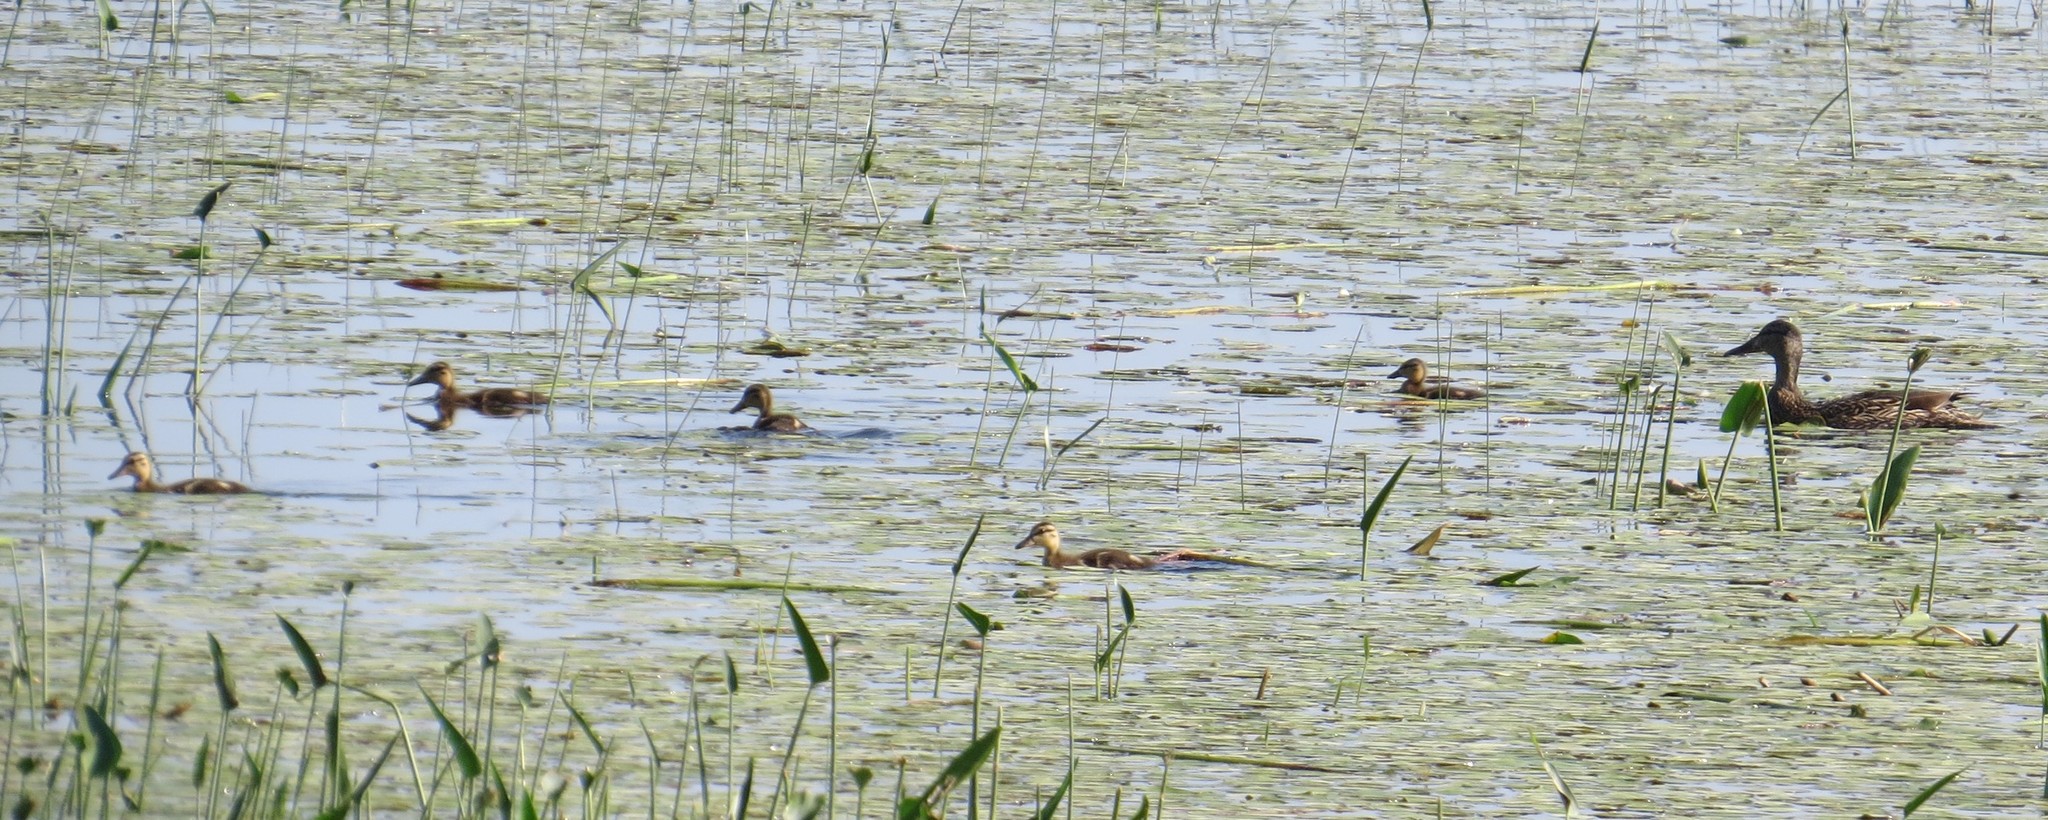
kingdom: Animalia
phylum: Chordata
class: Aves
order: Anseriformes
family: Anatidae
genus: Anas
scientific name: Anas platyrhynchos
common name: Mallard
